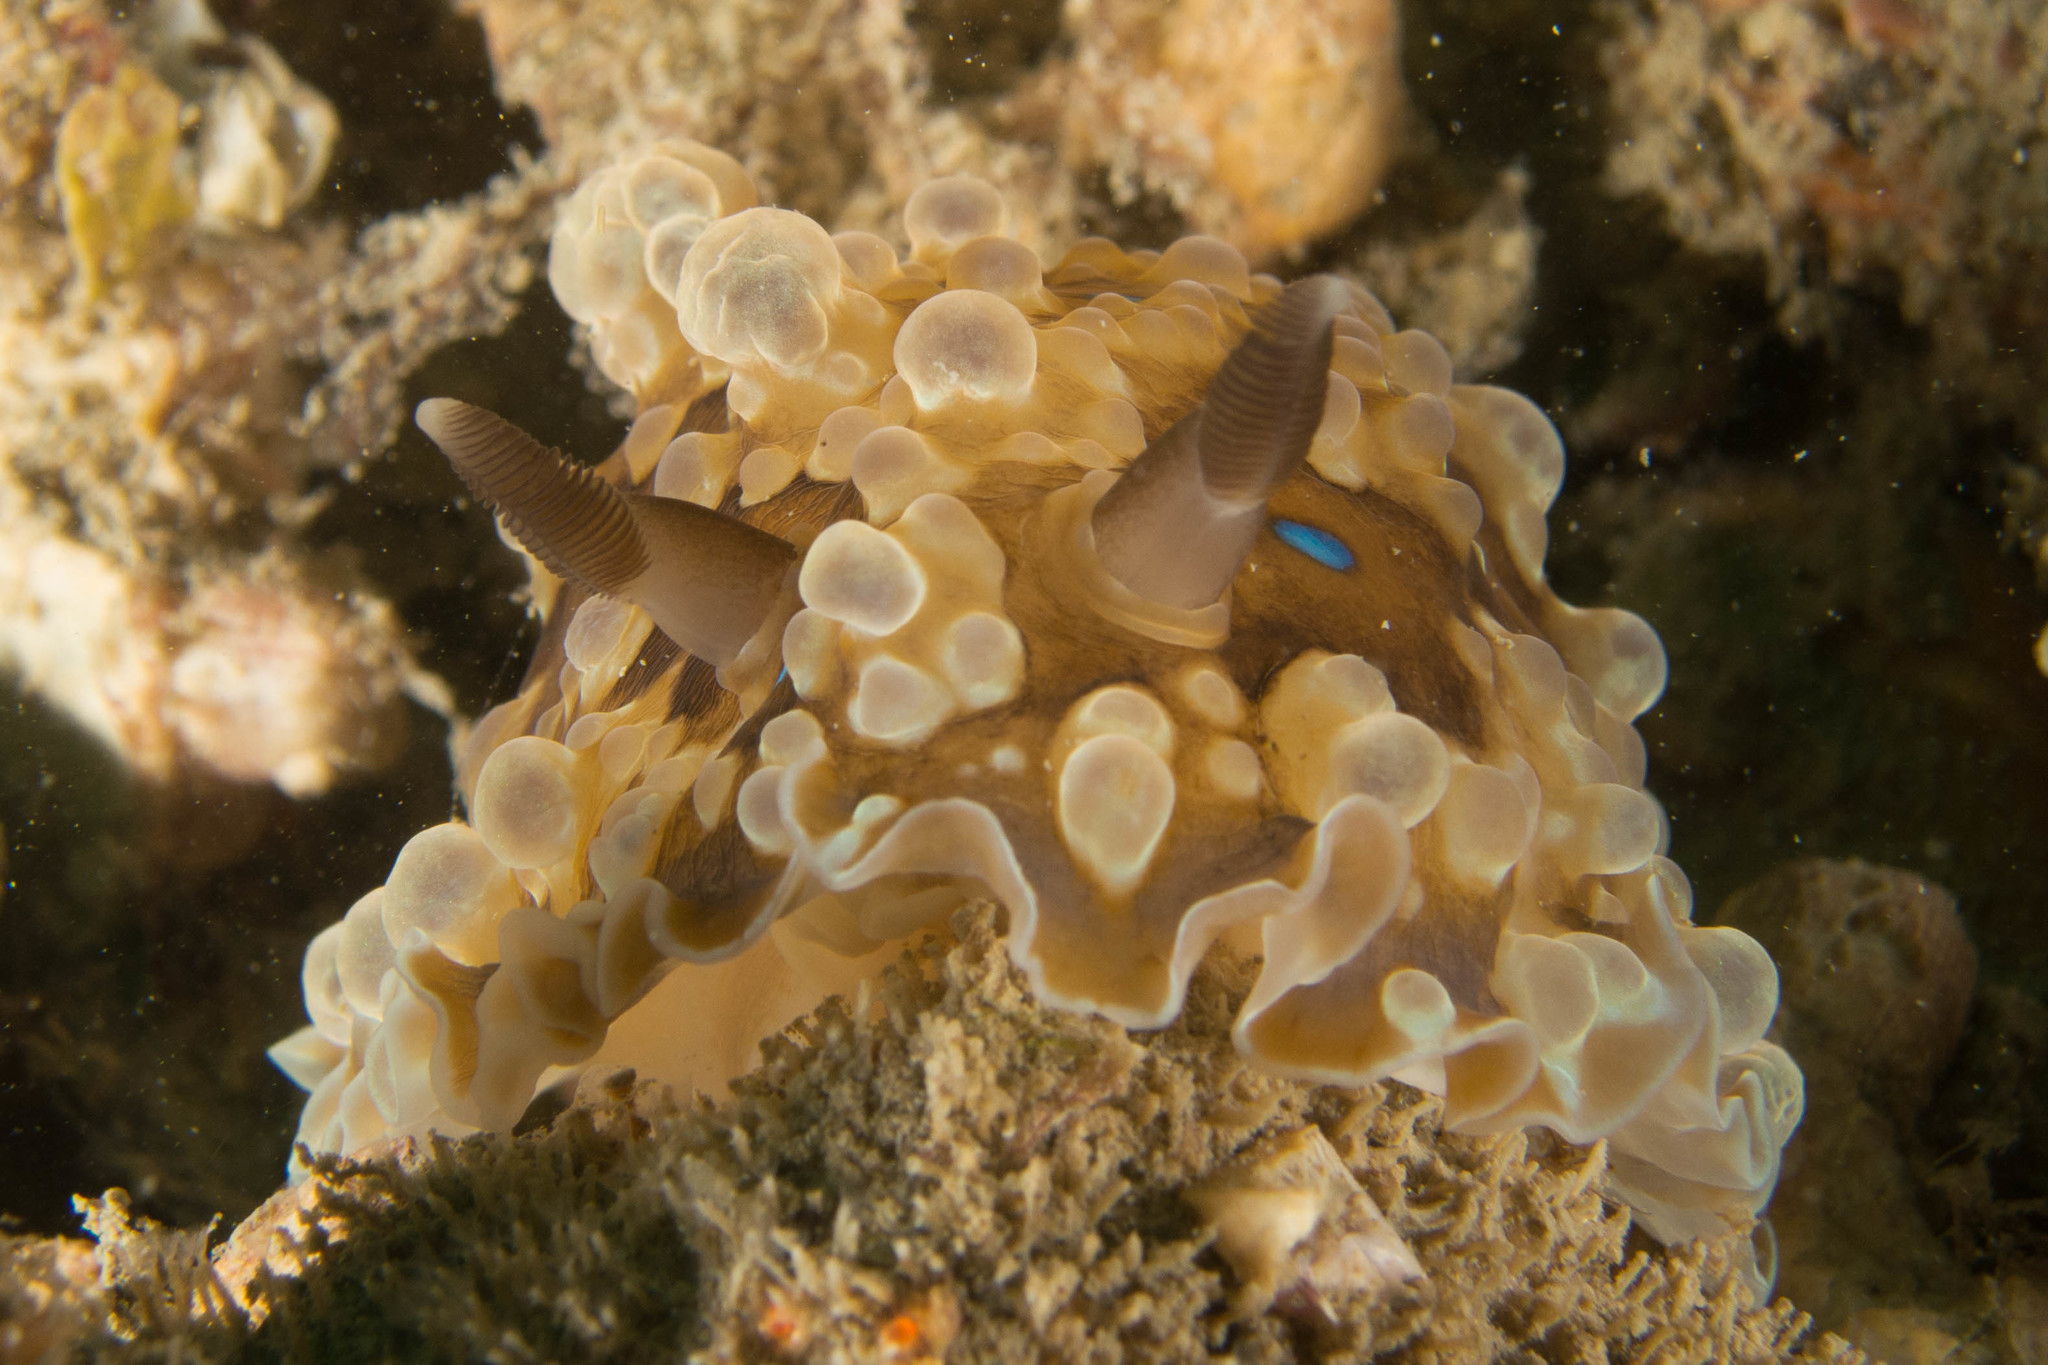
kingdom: Animalia
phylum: Mollusca
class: Gastropoda
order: Nudibranchia
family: Dendrodorididae
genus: Dendrodoris
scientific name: Dendrodoris krusensternii
